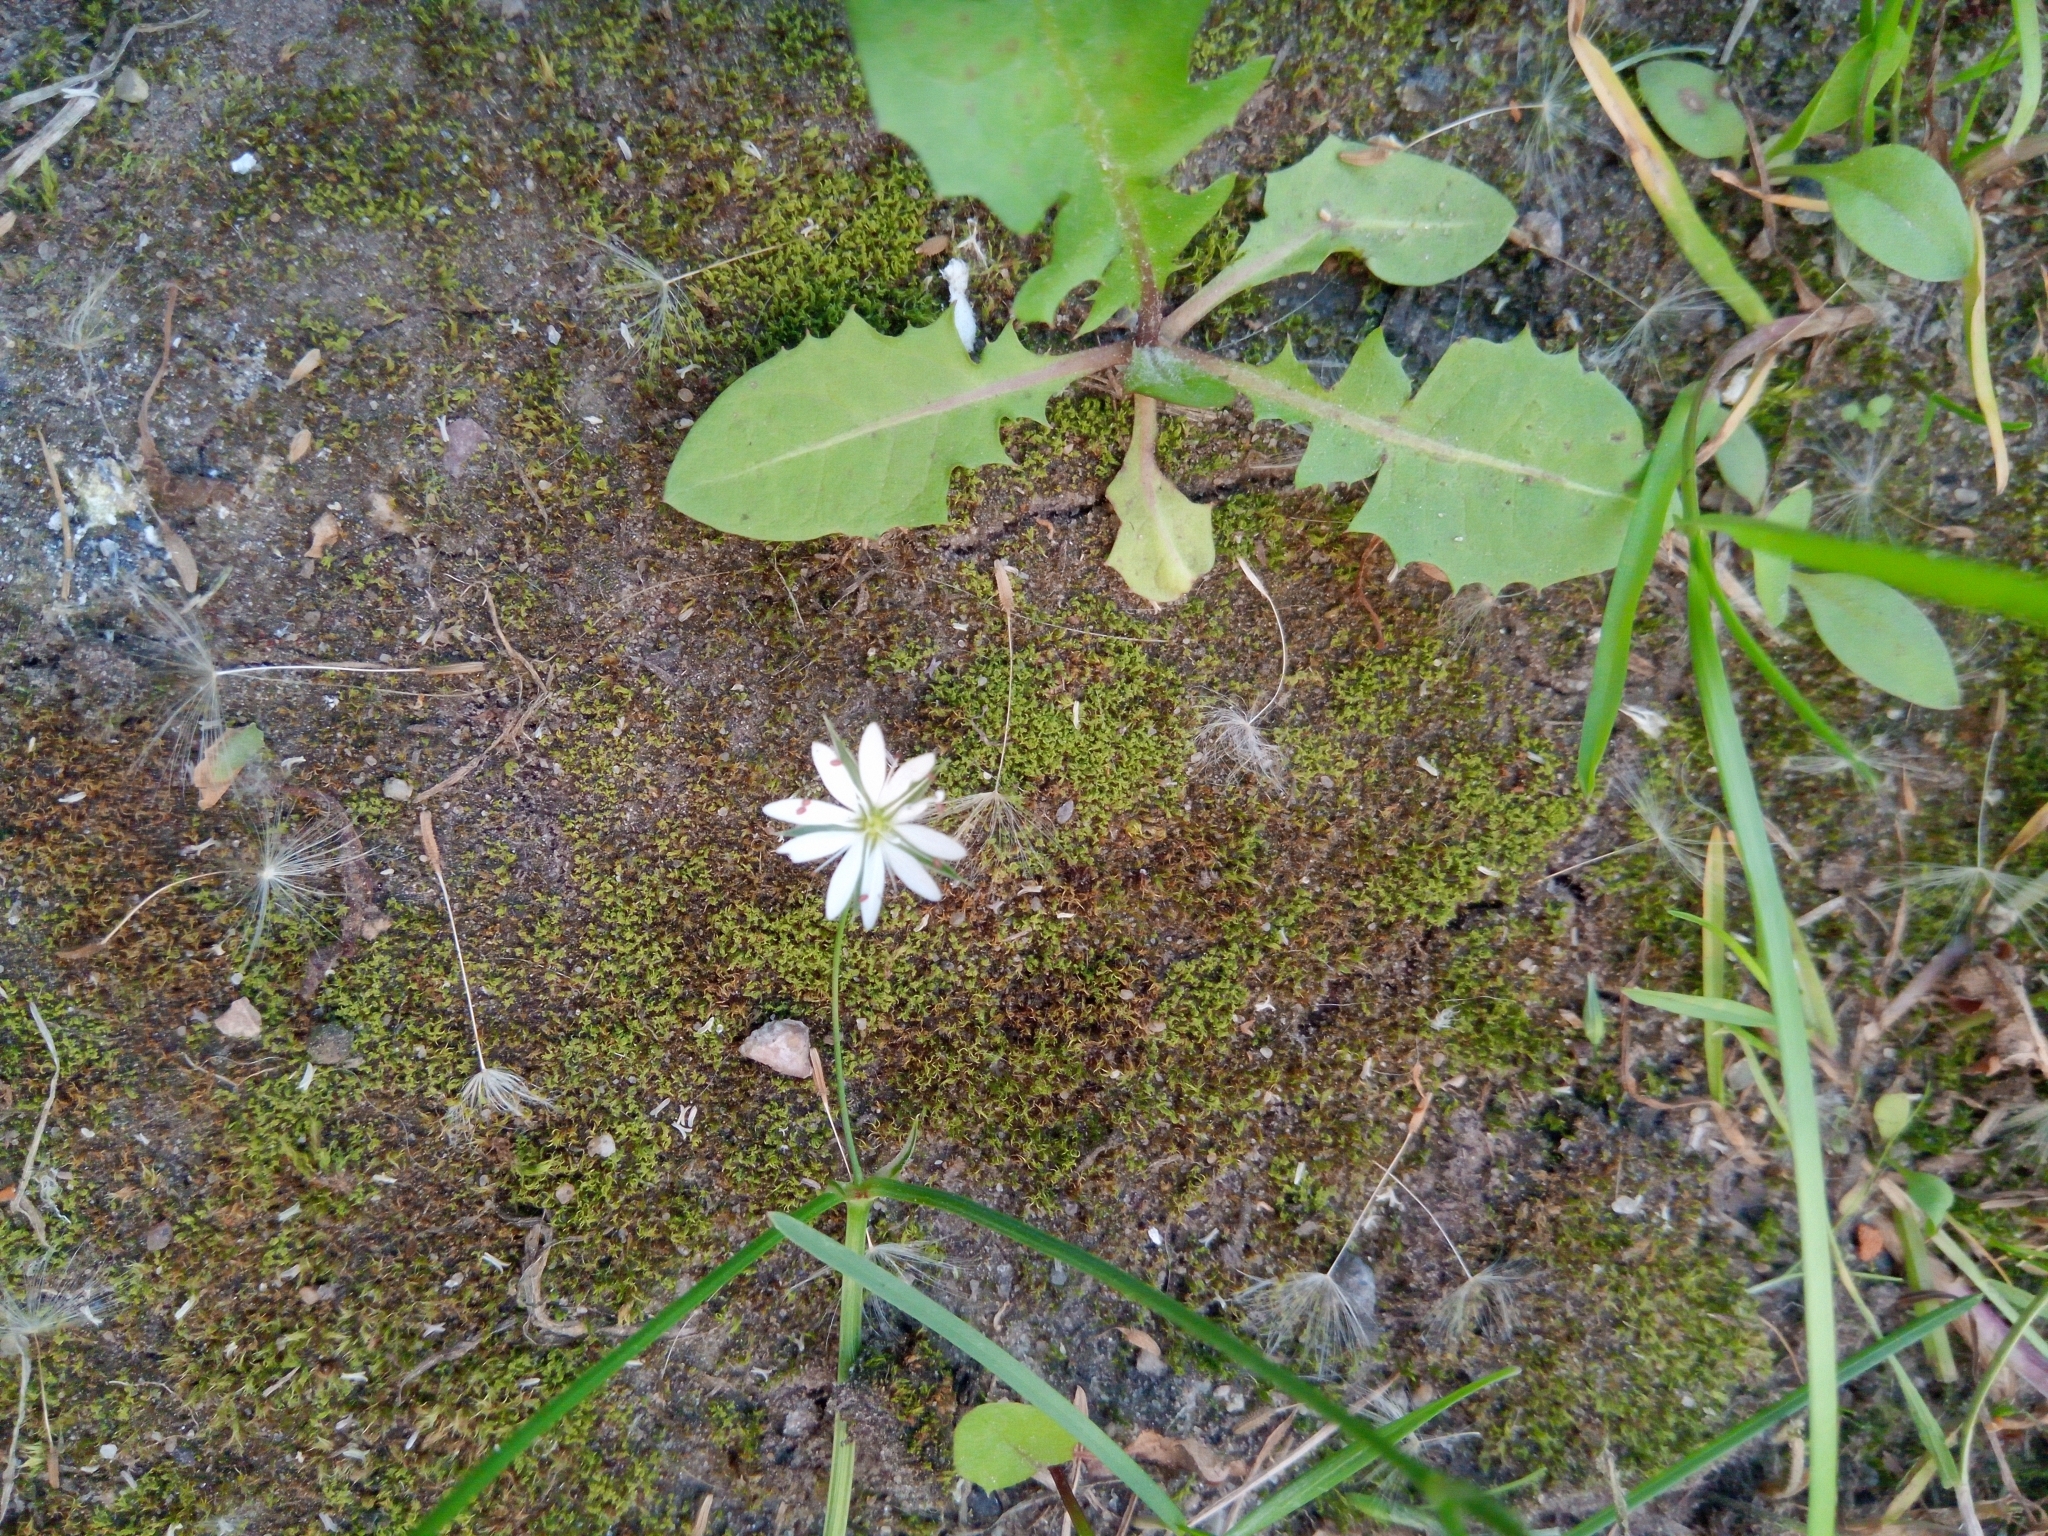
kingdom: Plantae
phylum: Tracheophyta
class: Magnoliopsida
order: Caryophyllales
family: Caryophyllaceae
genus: Stellaria
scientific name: Stellaria graminea
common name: Grass-like starwort
